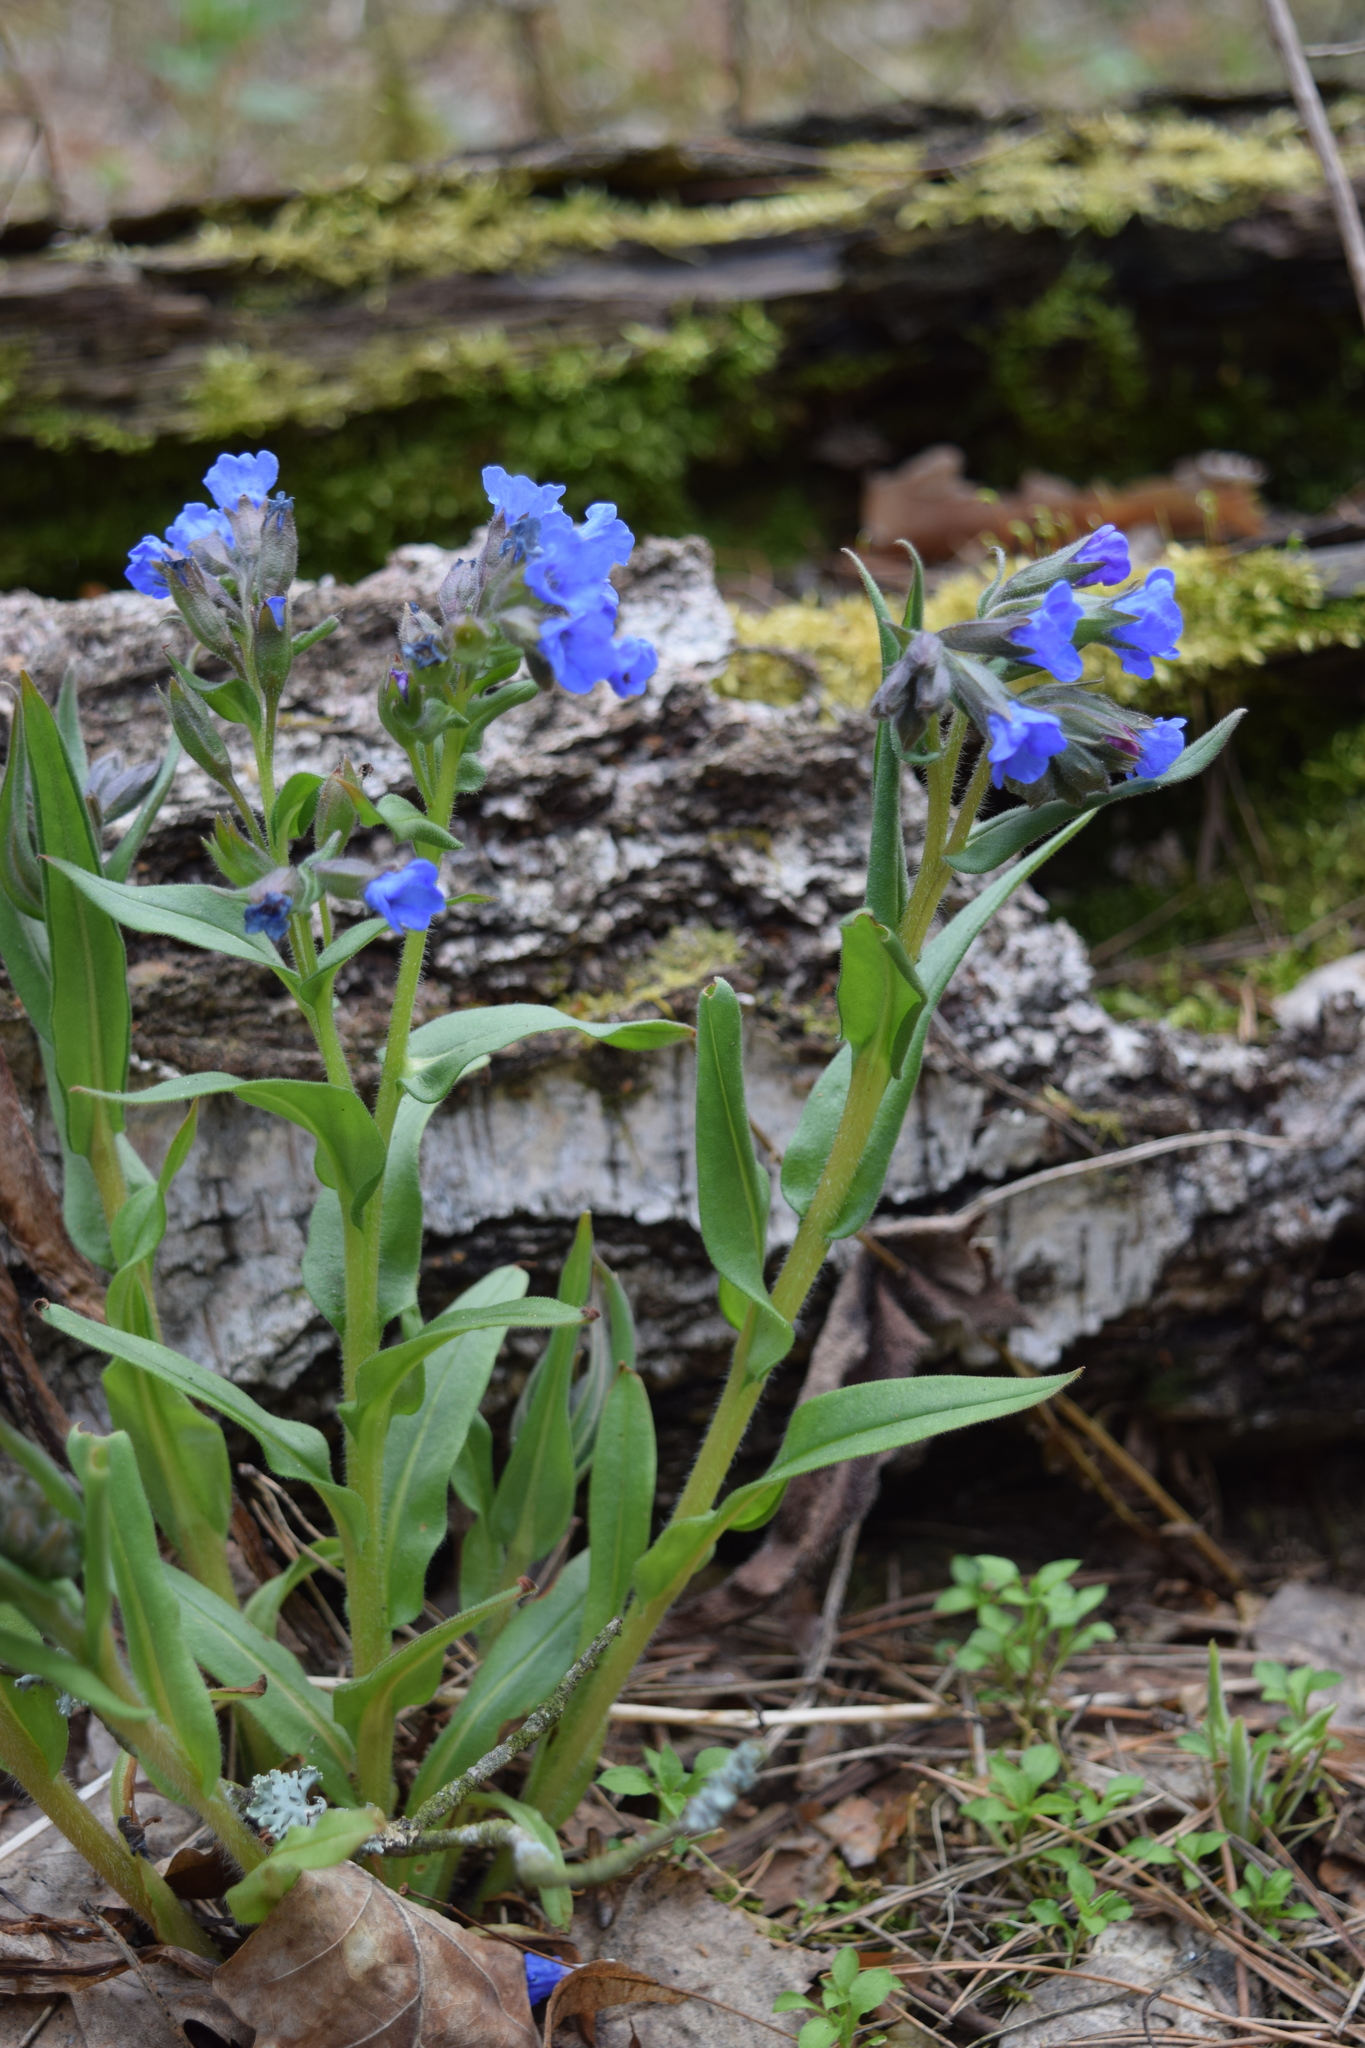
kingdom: Plantae
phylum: Tracheophyta
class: Magnoliopsida
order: Boraginales
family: Boraginaceae
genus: Pulmonaria
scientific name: Pulmonaria angustifolia
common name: Blue cowslip
